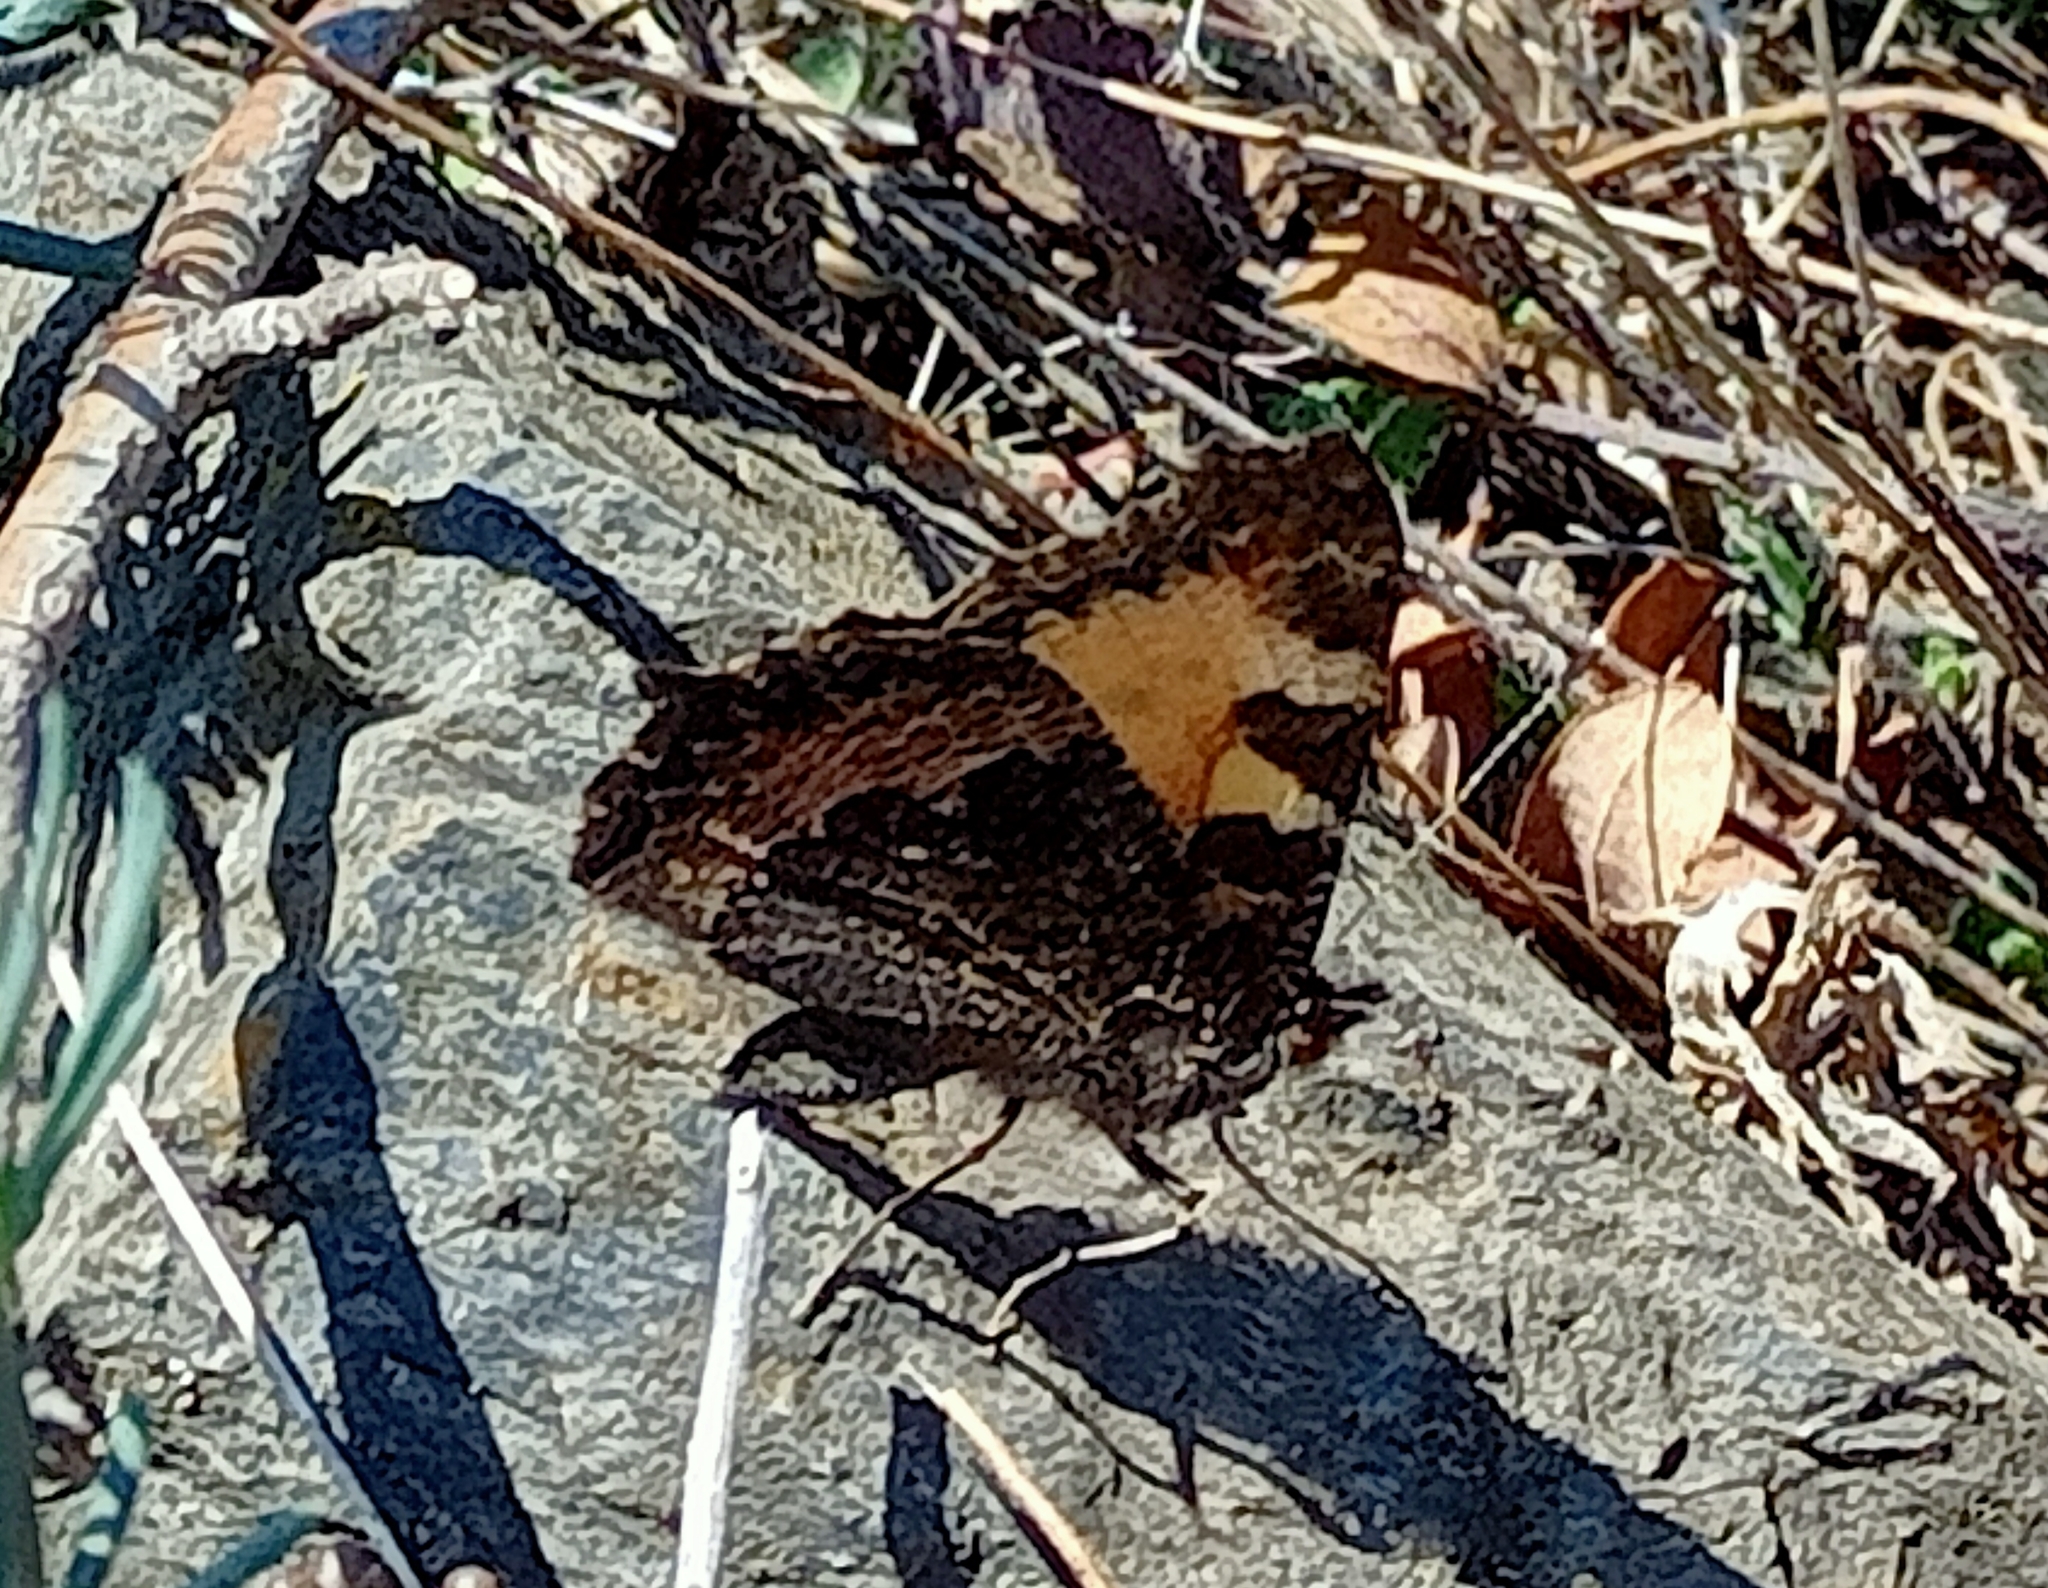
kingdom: Animalia
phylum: Arthropoda
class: Insecta
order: Lepidoptera
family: Nymphalidae
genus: Aglais
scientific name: Aglais urticae
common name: Small tortoiseshell
